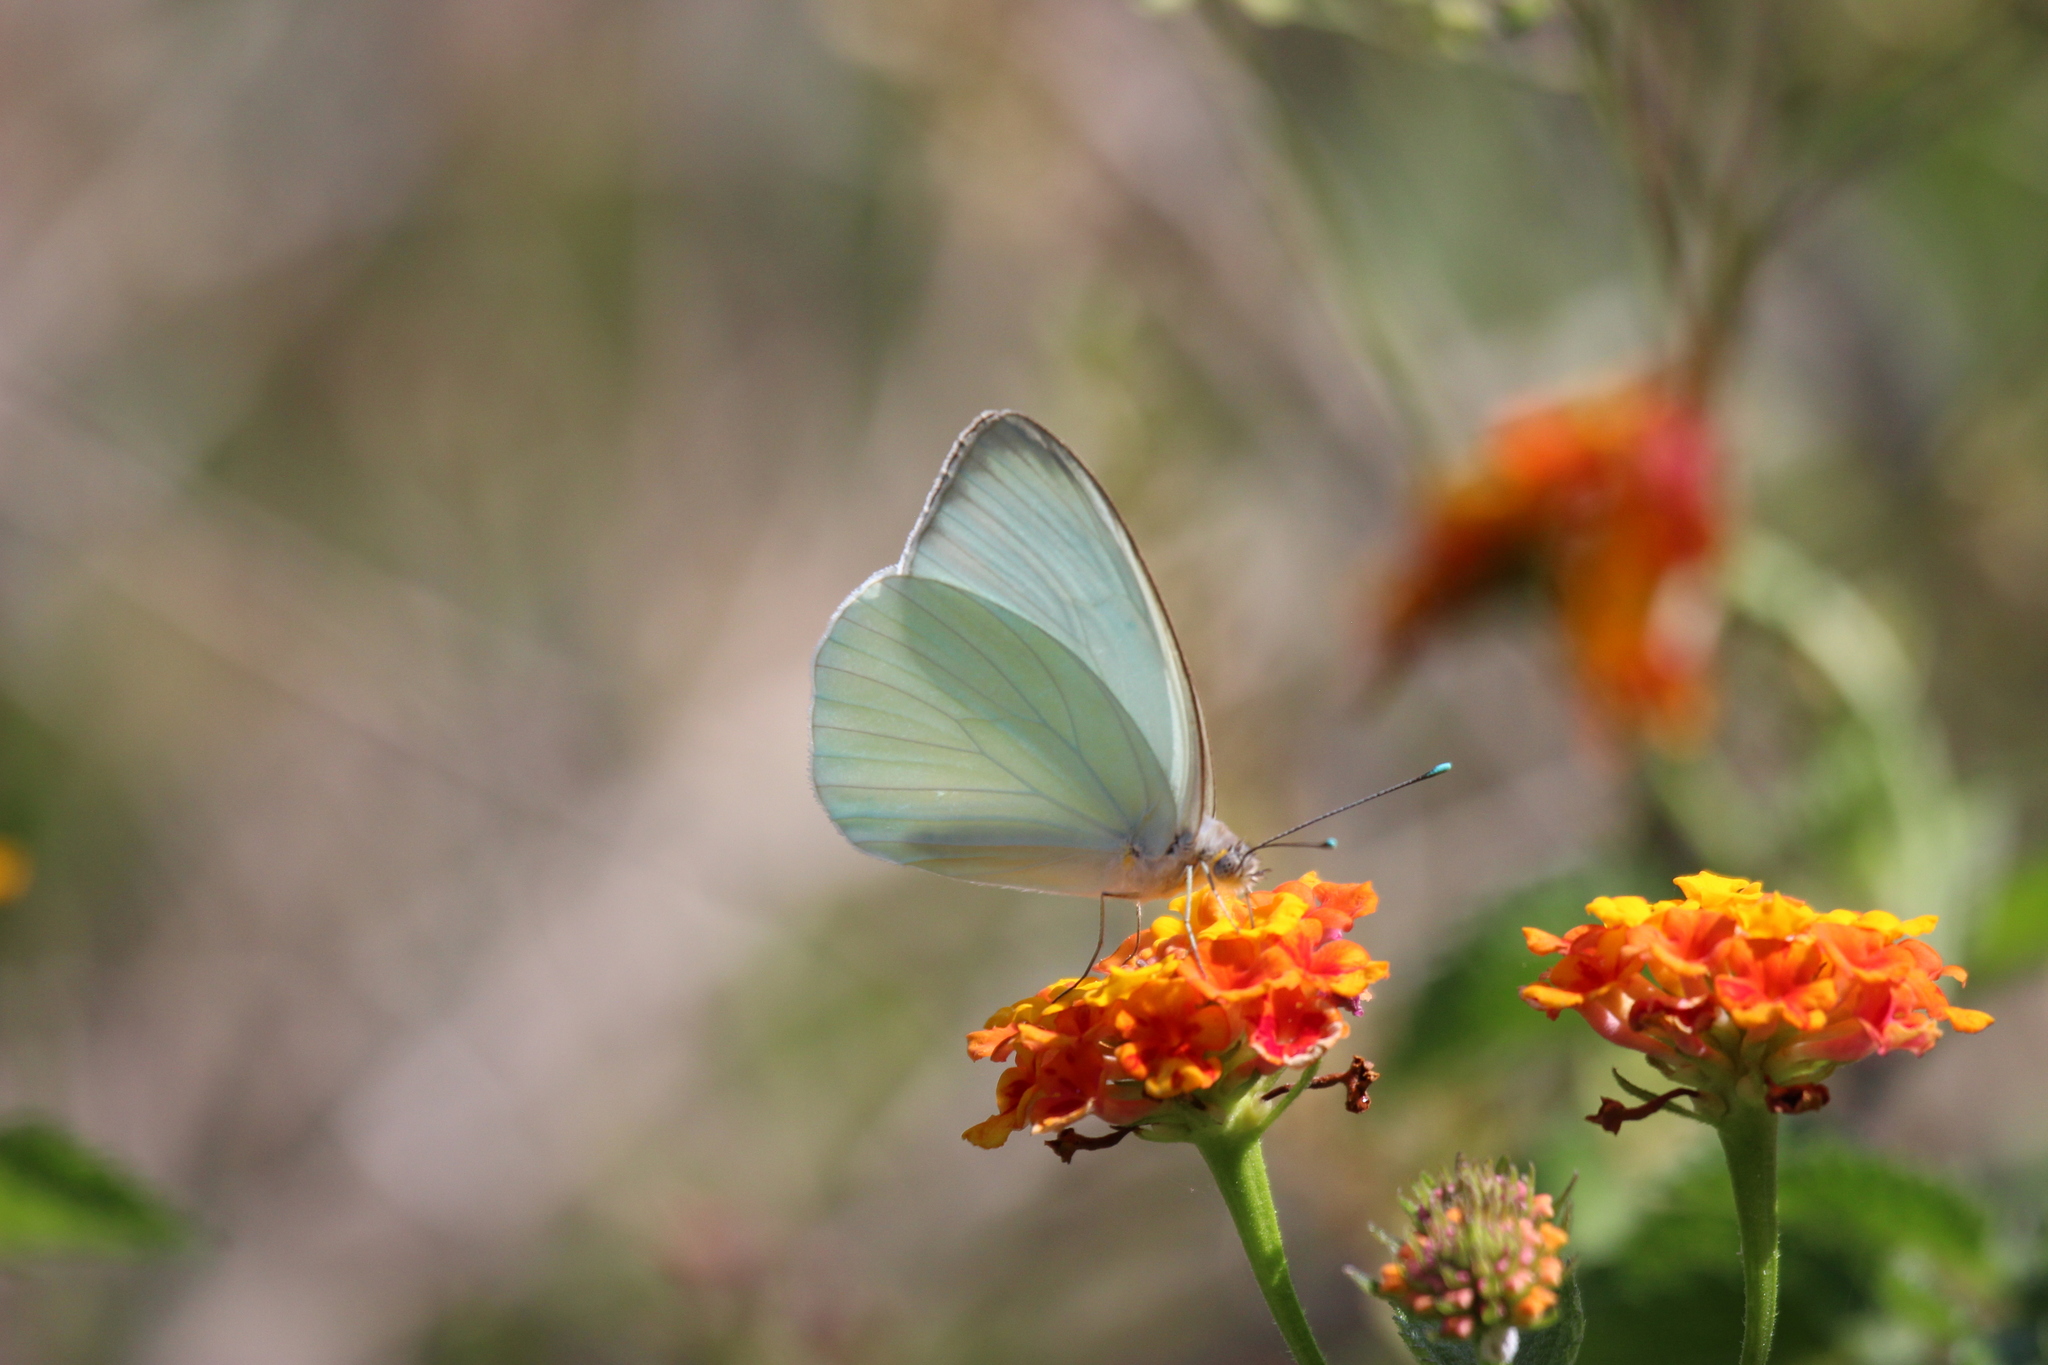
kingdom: Animalia
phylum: Arthropoda
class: Insecta
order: Lepidoptera
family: Pieridae
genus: Ascia
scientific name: Ascia monuste
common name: Great southern white
